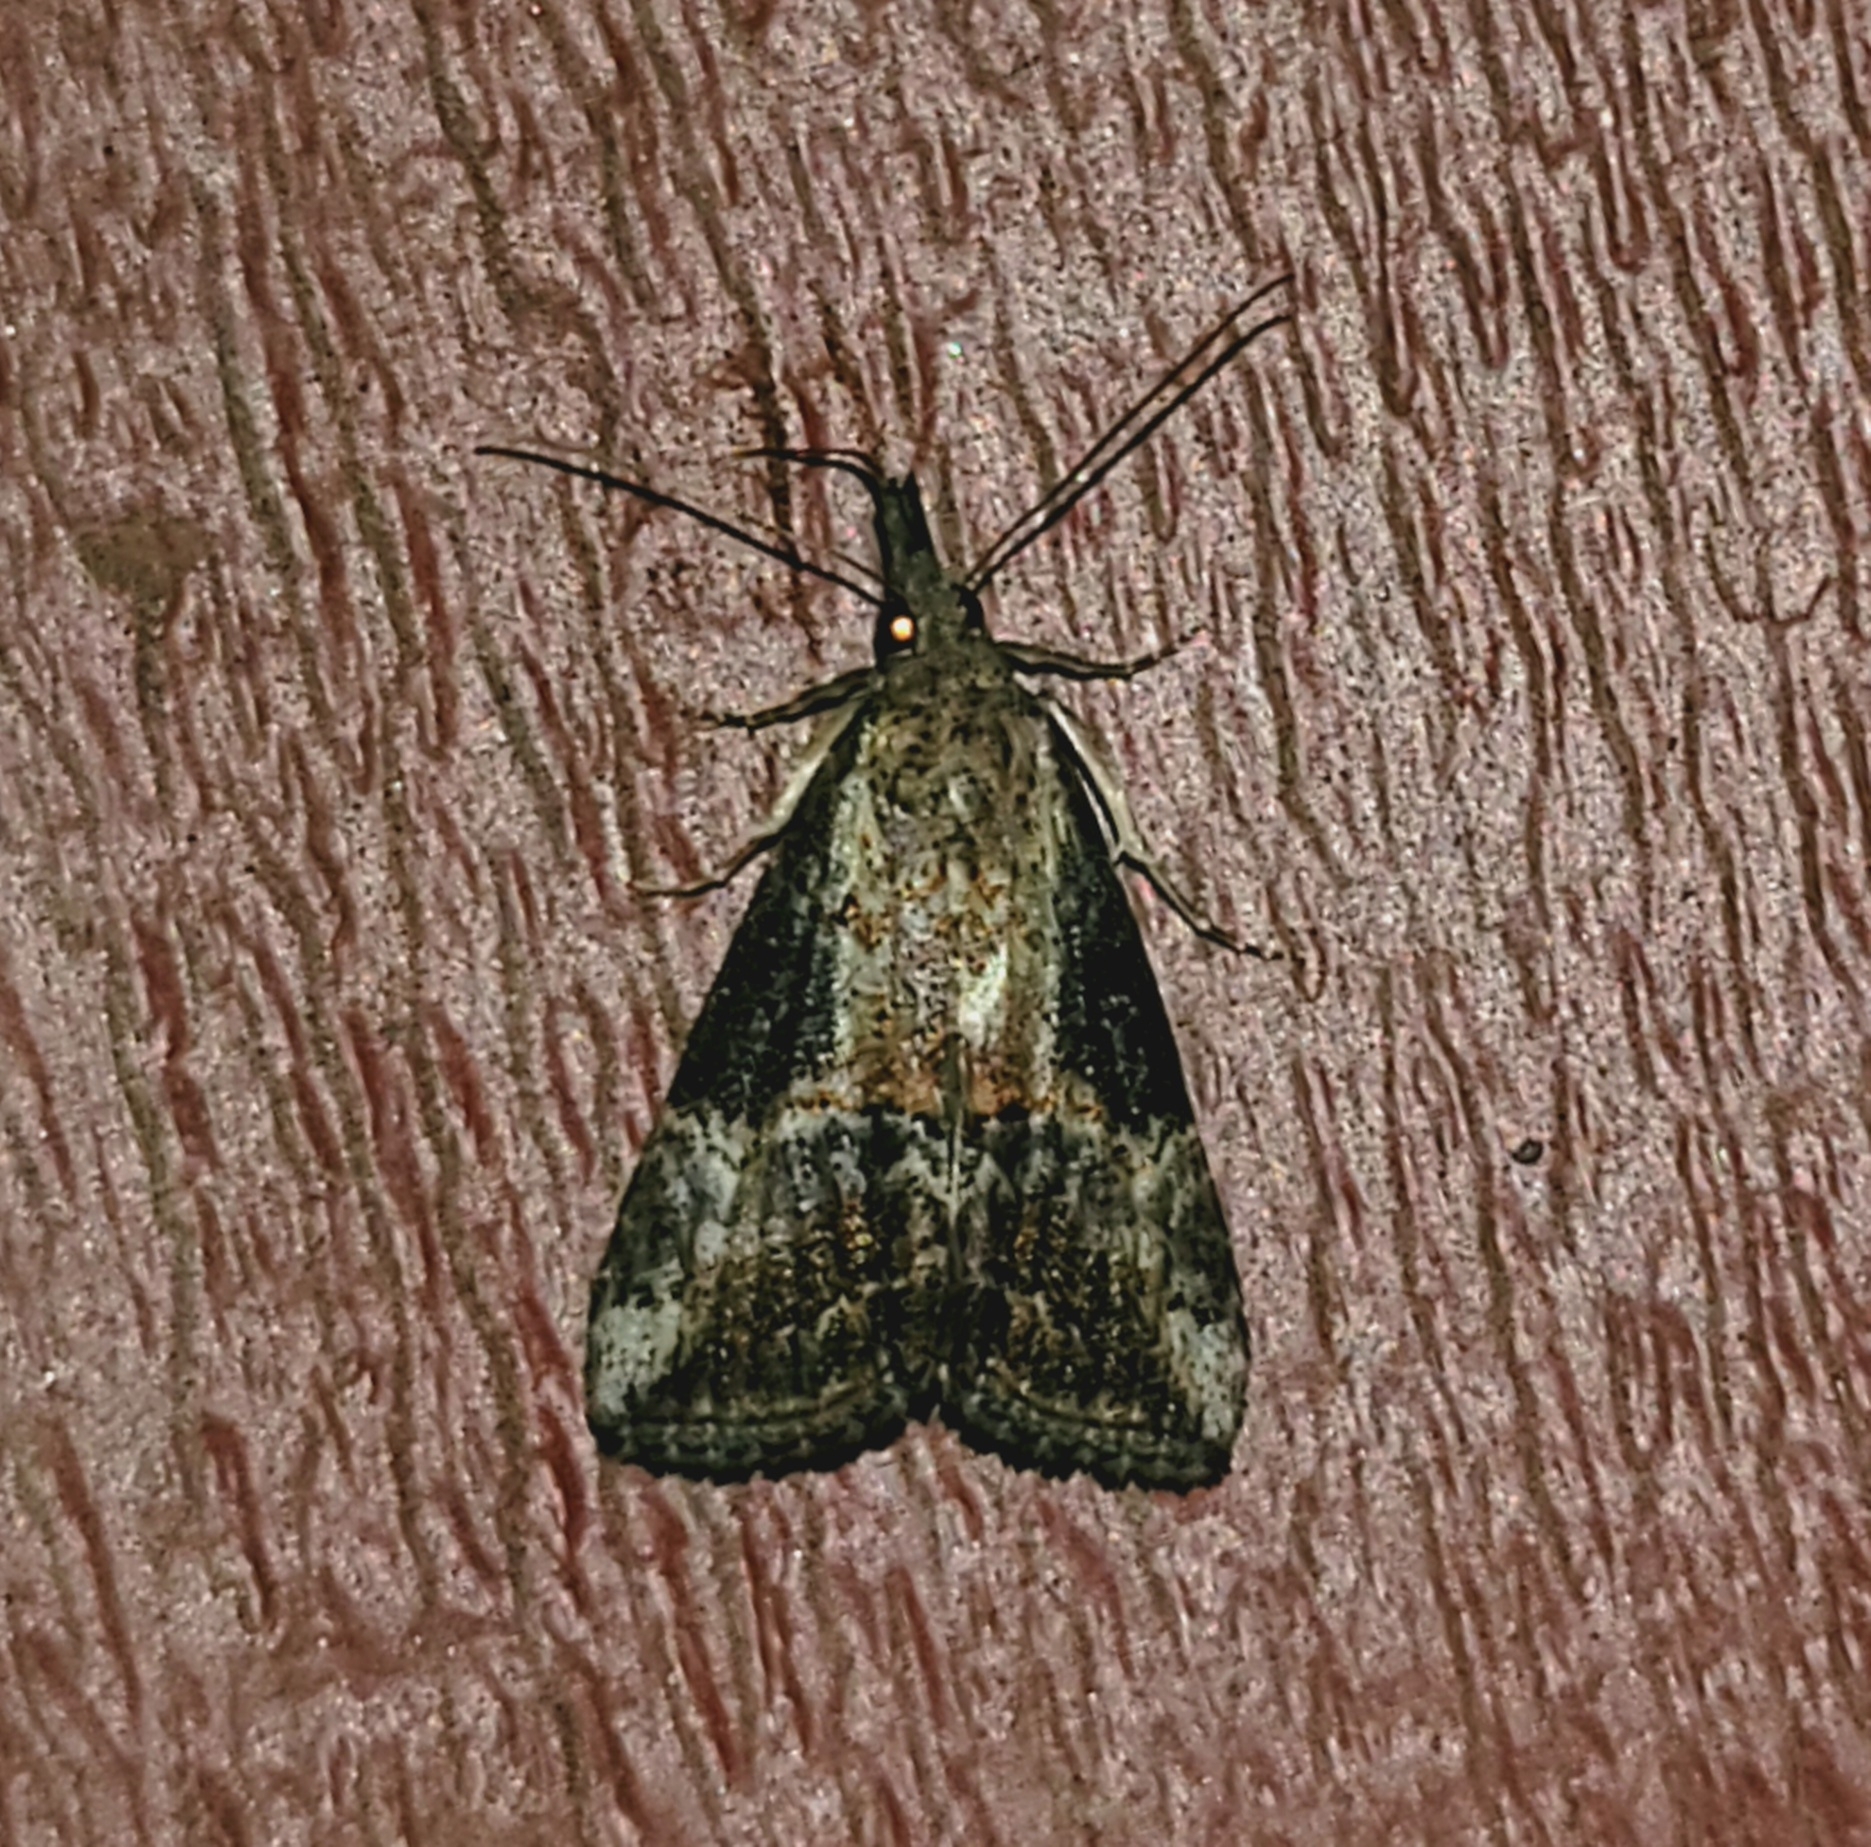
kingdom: Animalia
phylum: Arthropoda
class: Insecta
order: Lepidoptera
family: Erebidae
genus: Hypena
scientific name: Hypena scabra
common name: Green cloverworm
